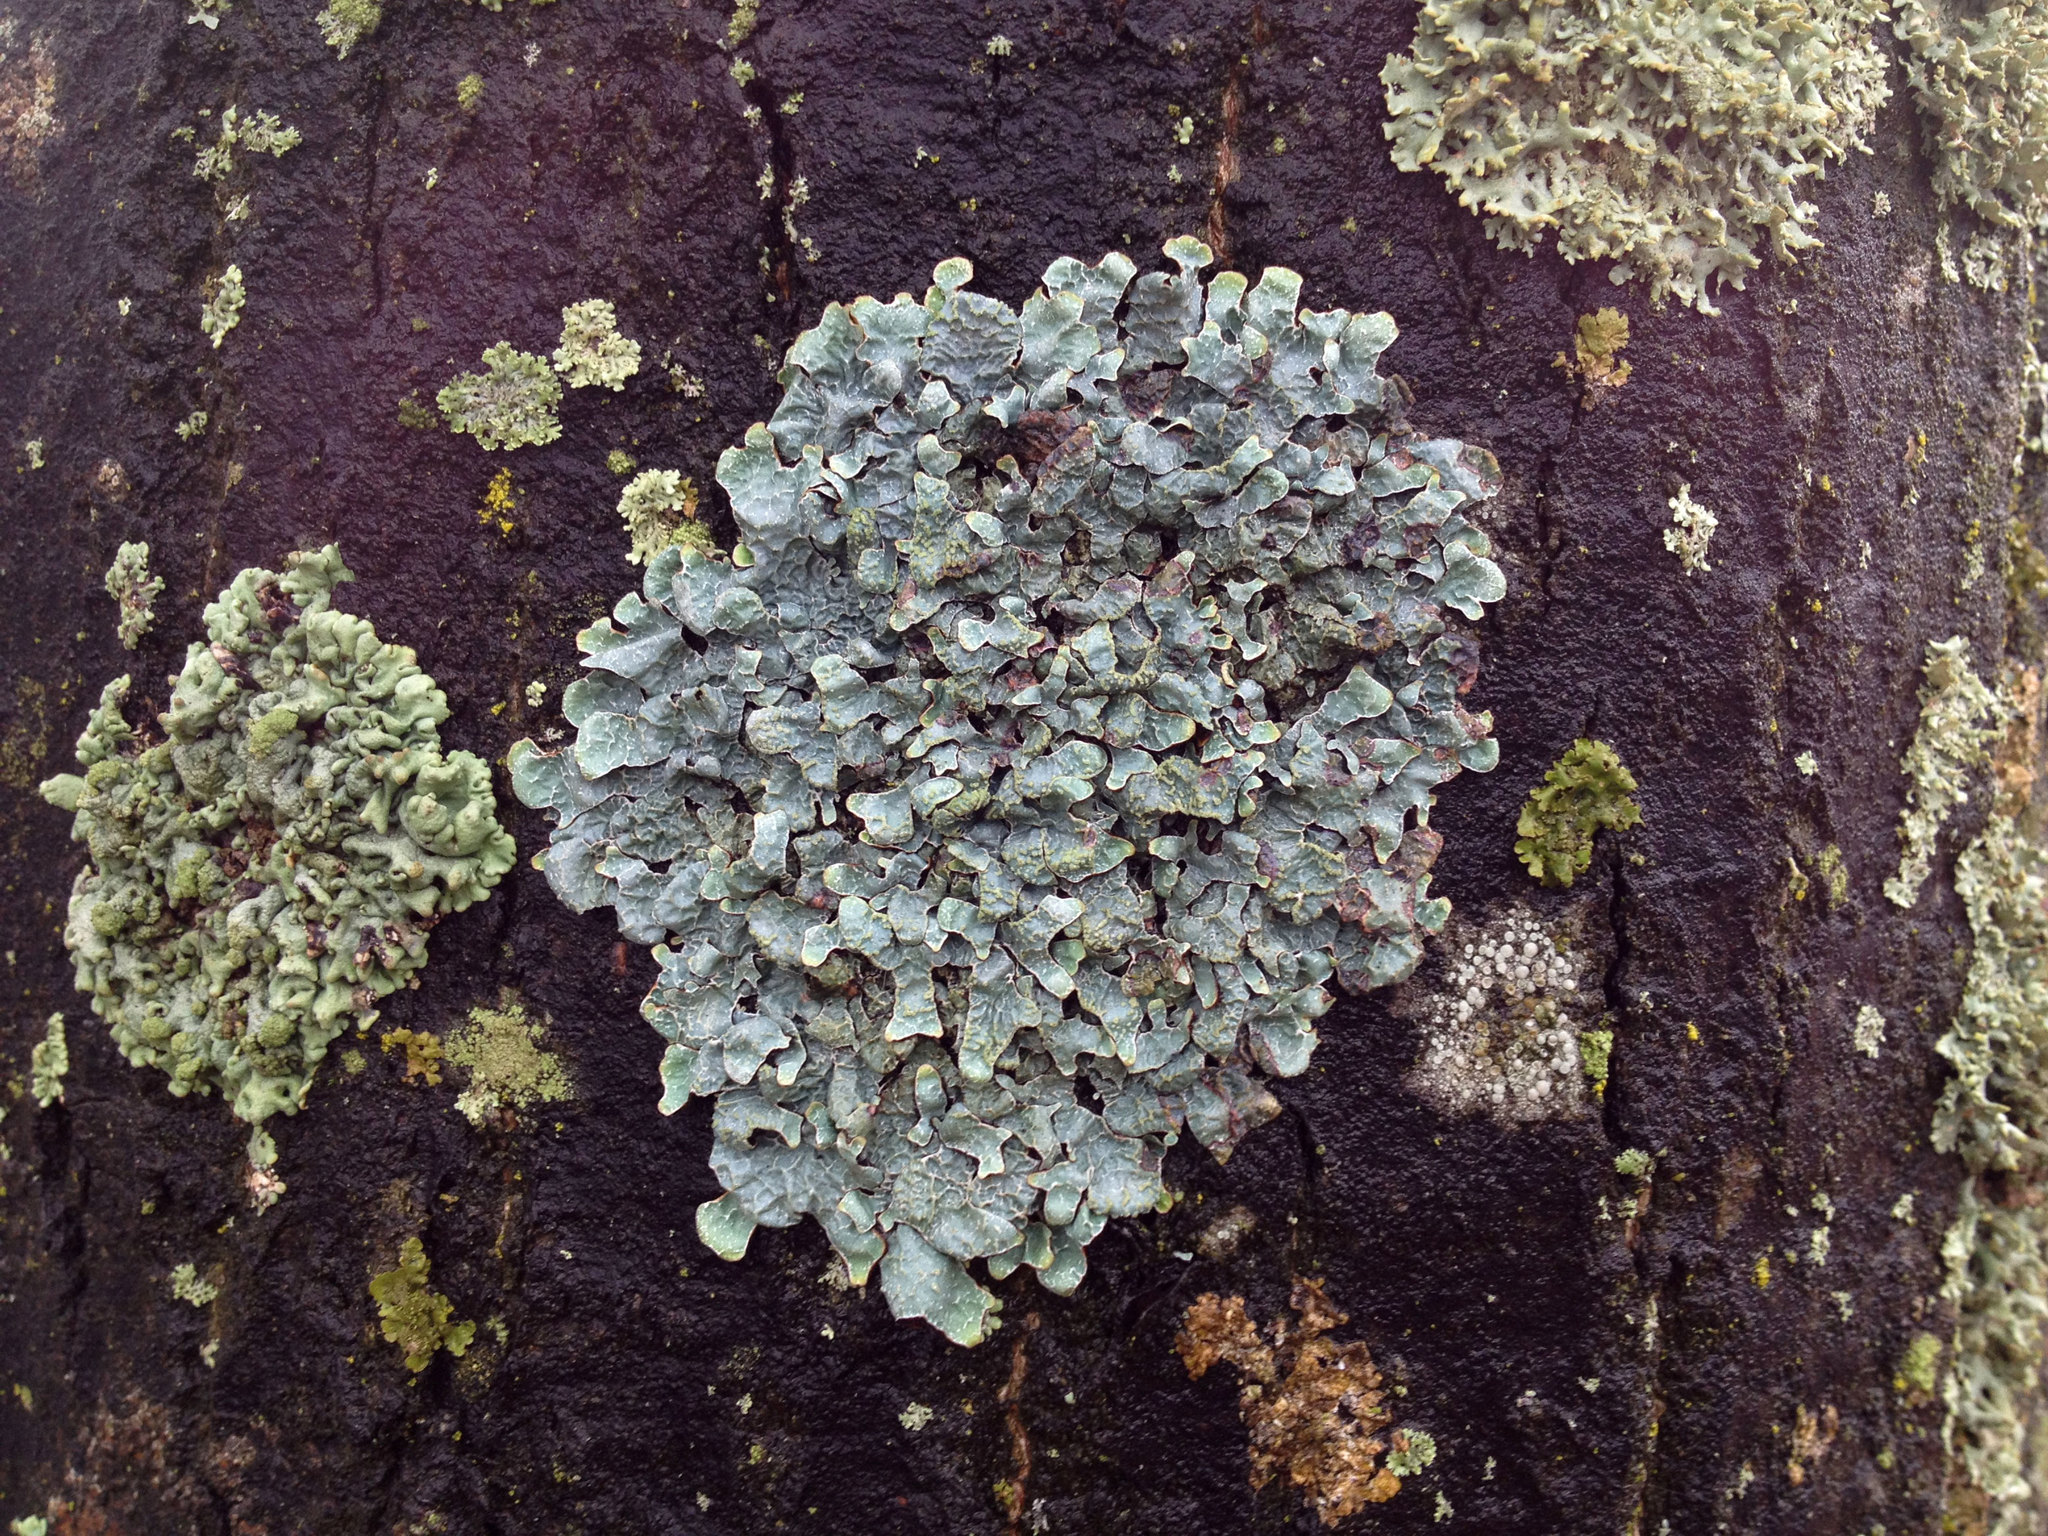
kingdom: Fungi
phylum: Ascomycota
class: Lecanoromycetes
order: Lecanorales
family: Parmeliaceae
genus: Parmelia
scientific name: Parmelia sulcata
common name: Netted shield lichen
